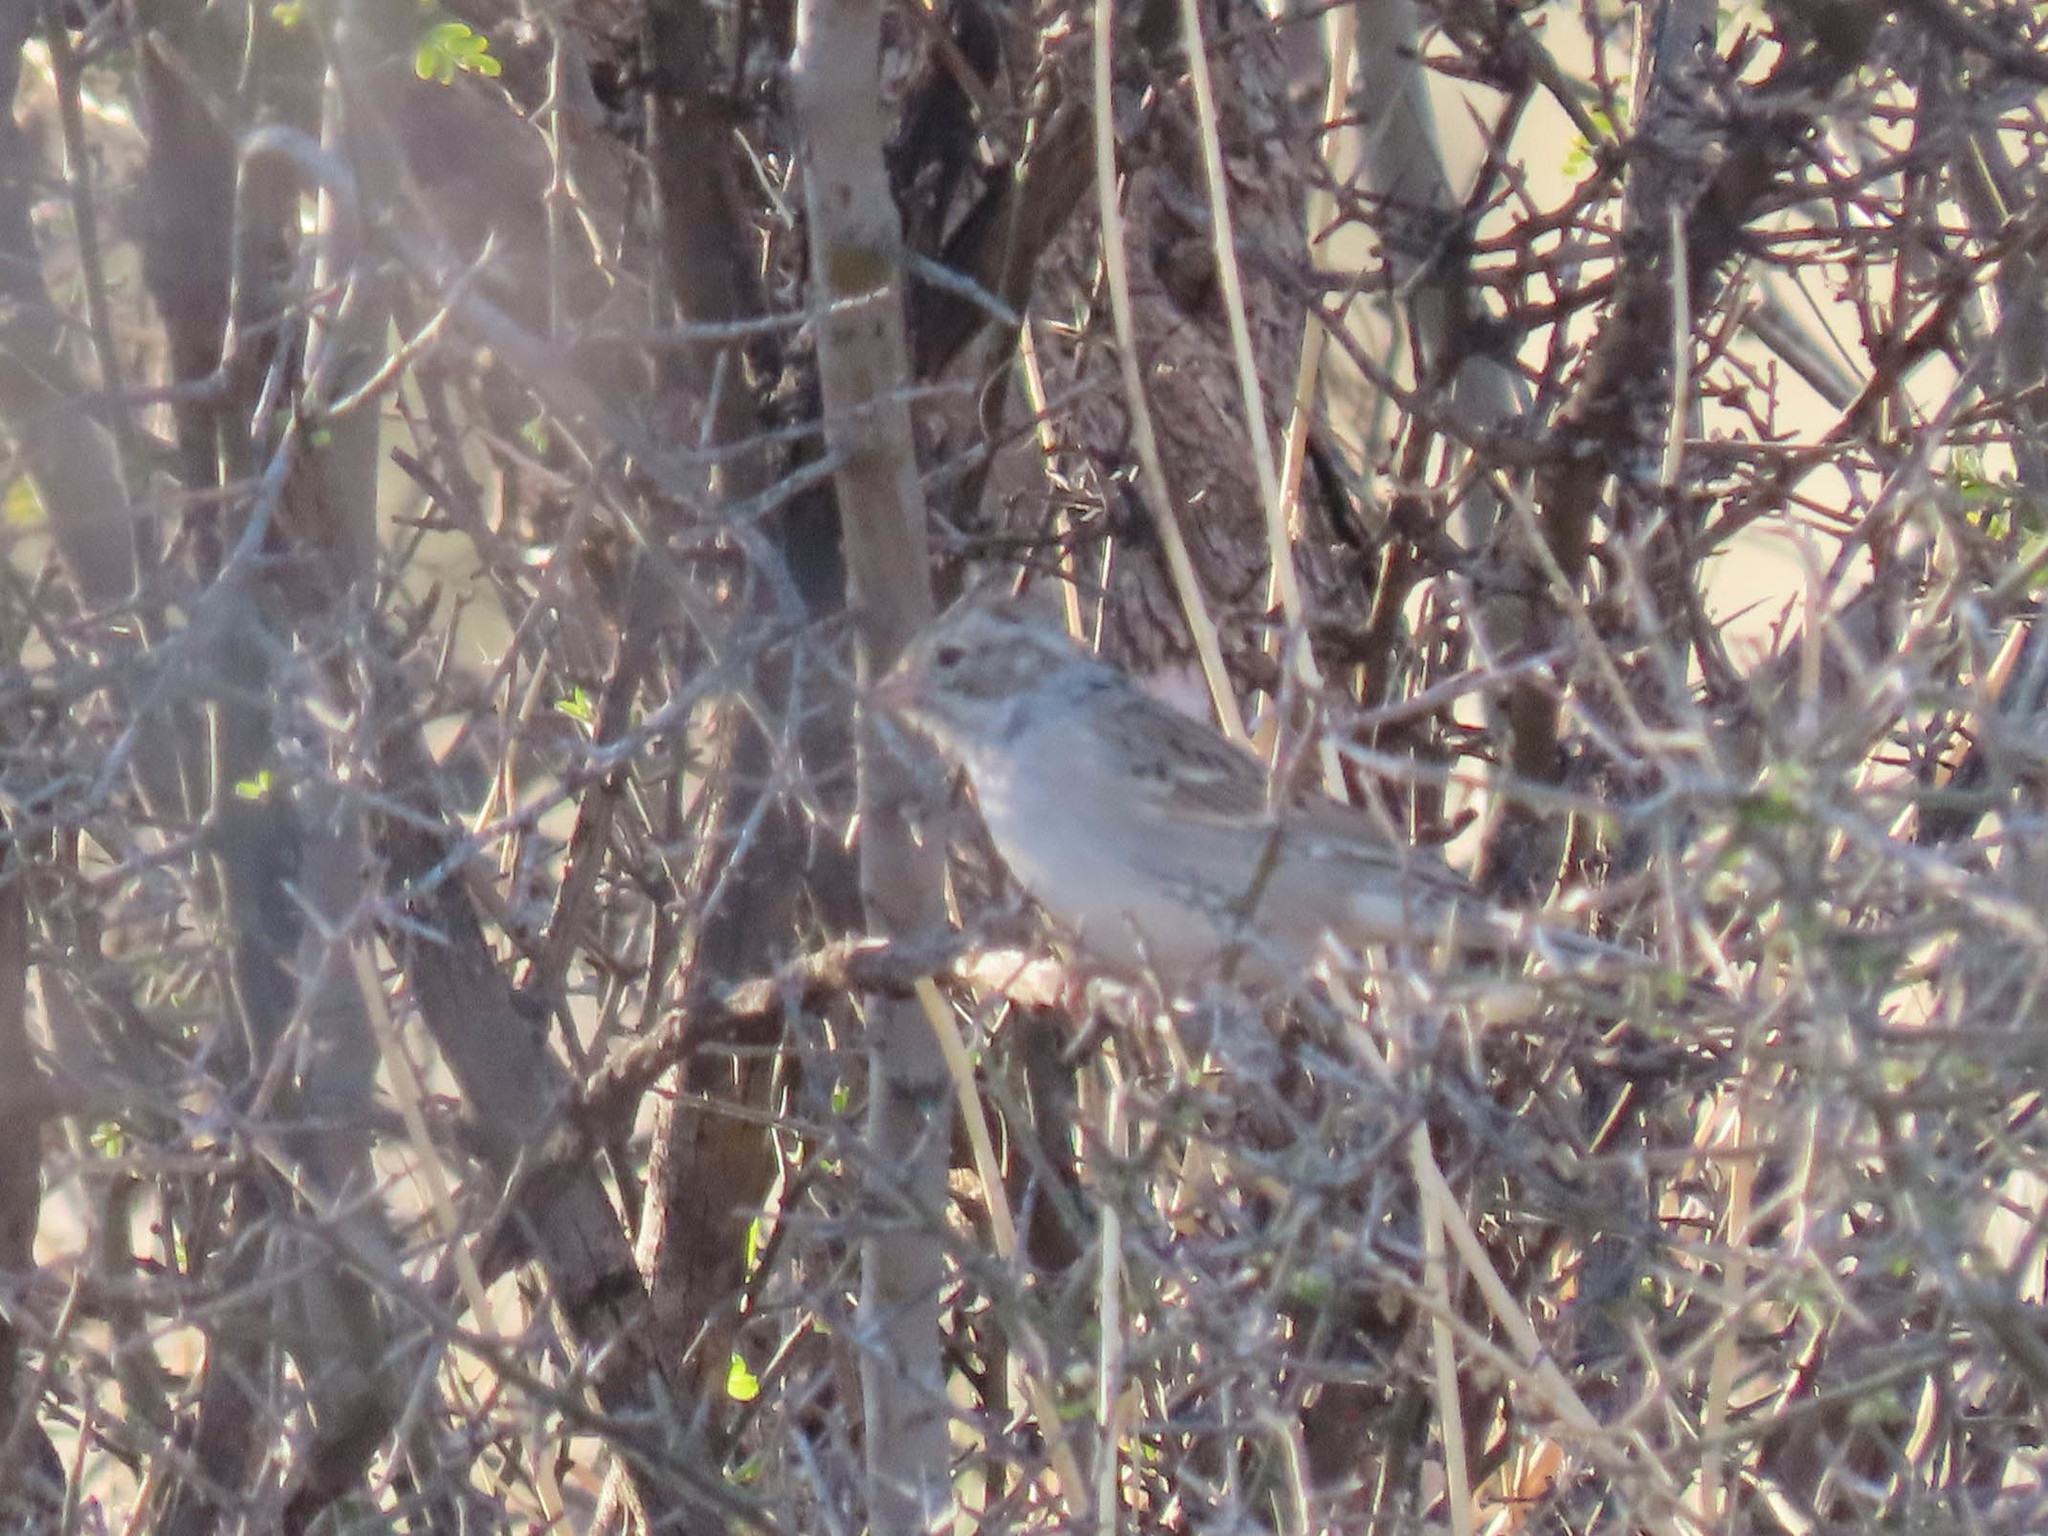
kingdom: Animalia
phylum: Chordata
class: Aves
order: Passeriformes
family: Passerellidae
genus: Spizella
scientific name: Spizella breweri
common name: Brewer's sparrow
